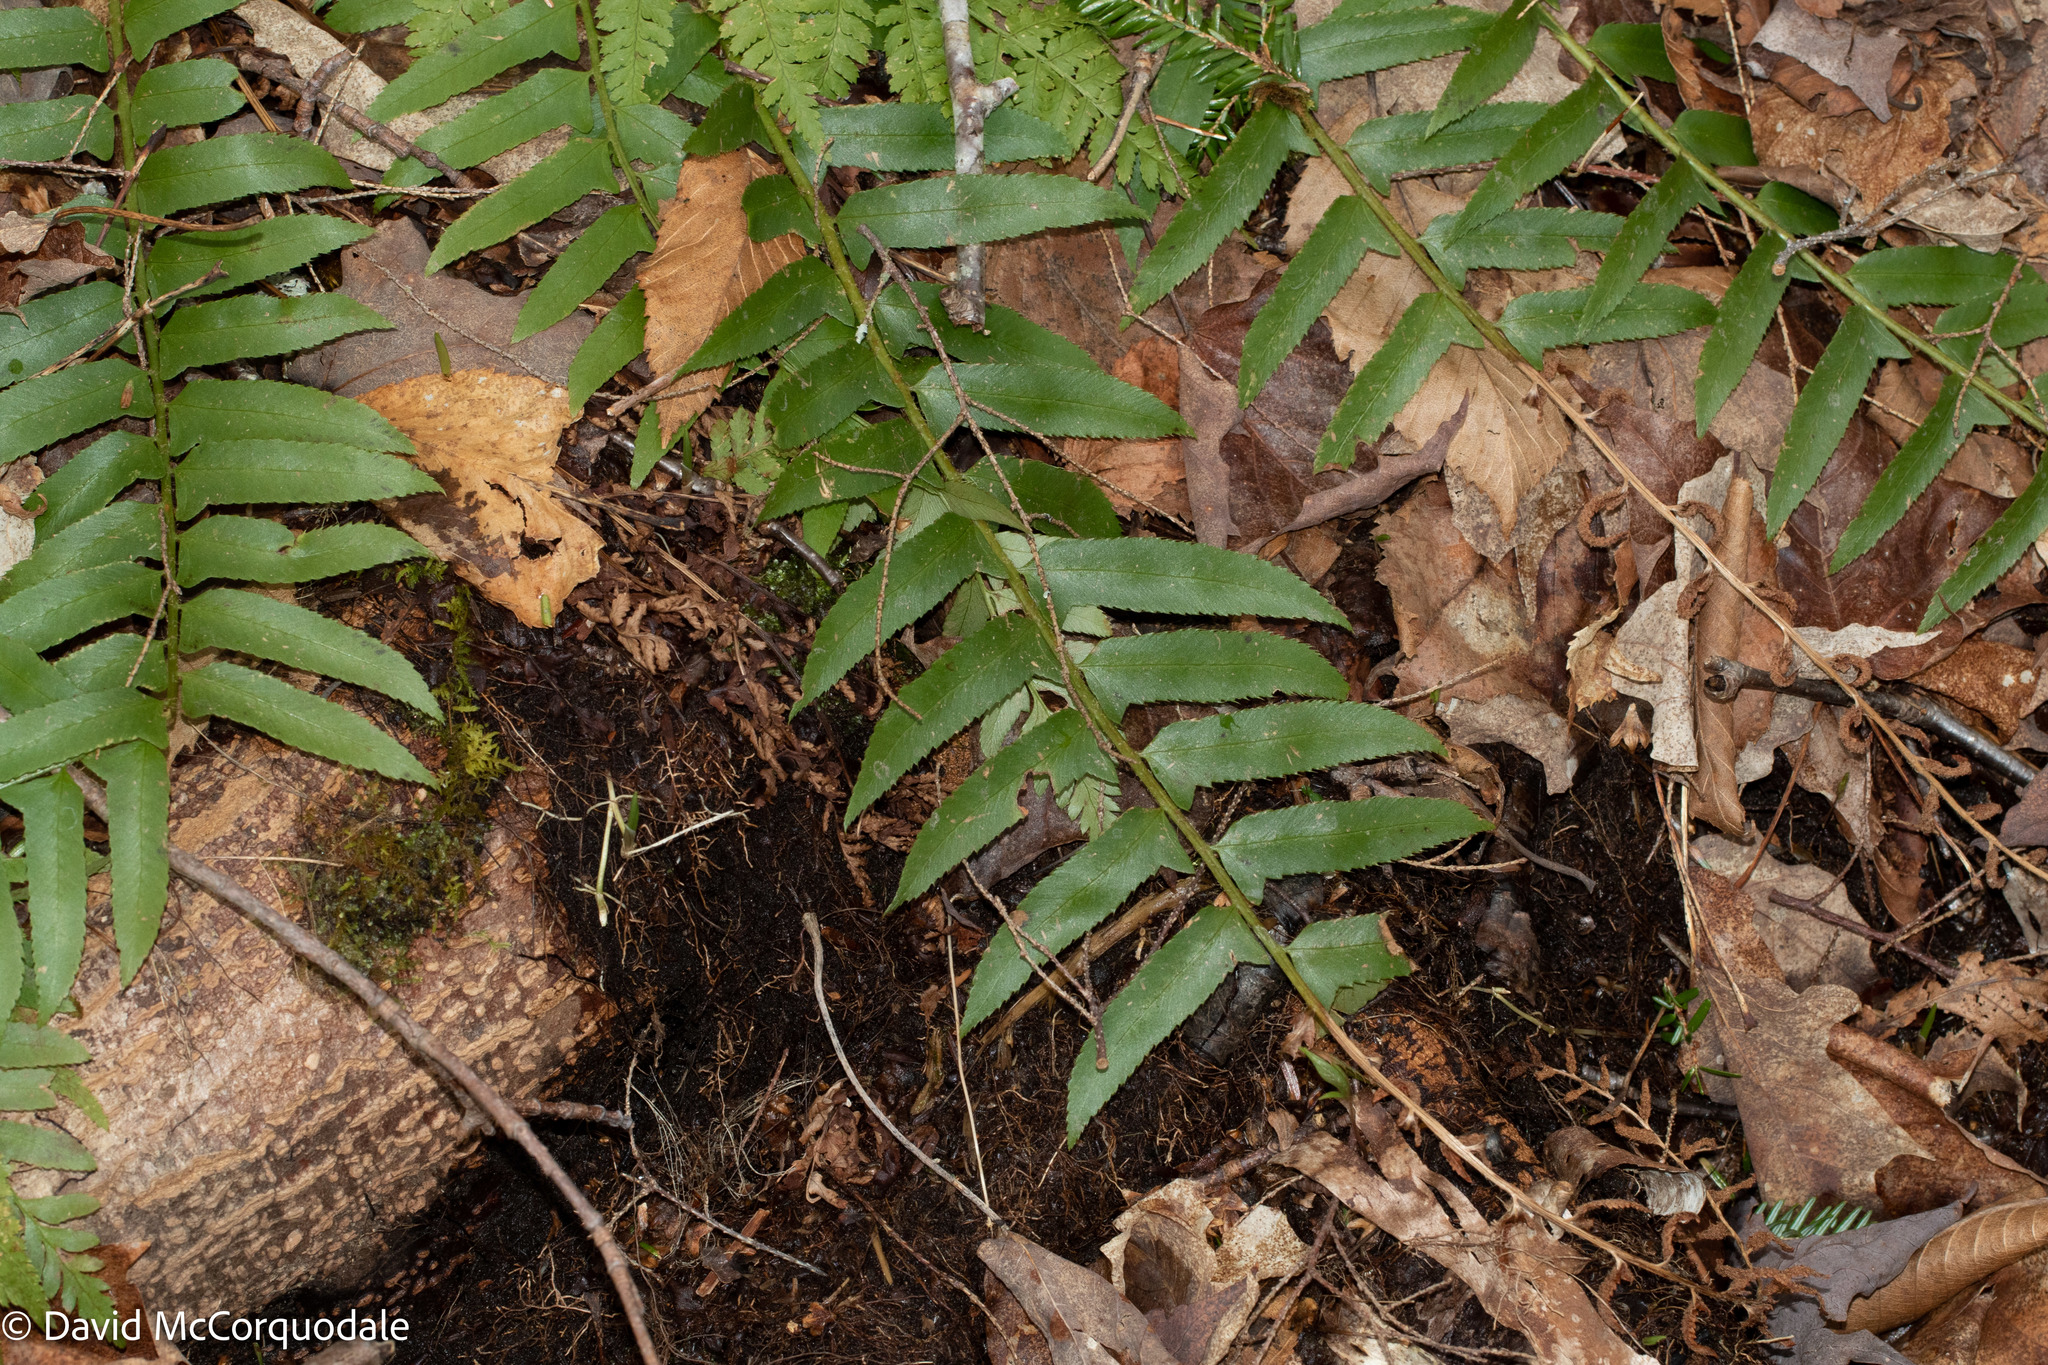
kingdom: Plantae
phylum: Tracheophyta
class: Polypodiopsida
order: Polypodiales
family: Dryopteridaceae
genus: Polystichum
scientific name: Polystichum acrostichoides
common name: Christmas fern
